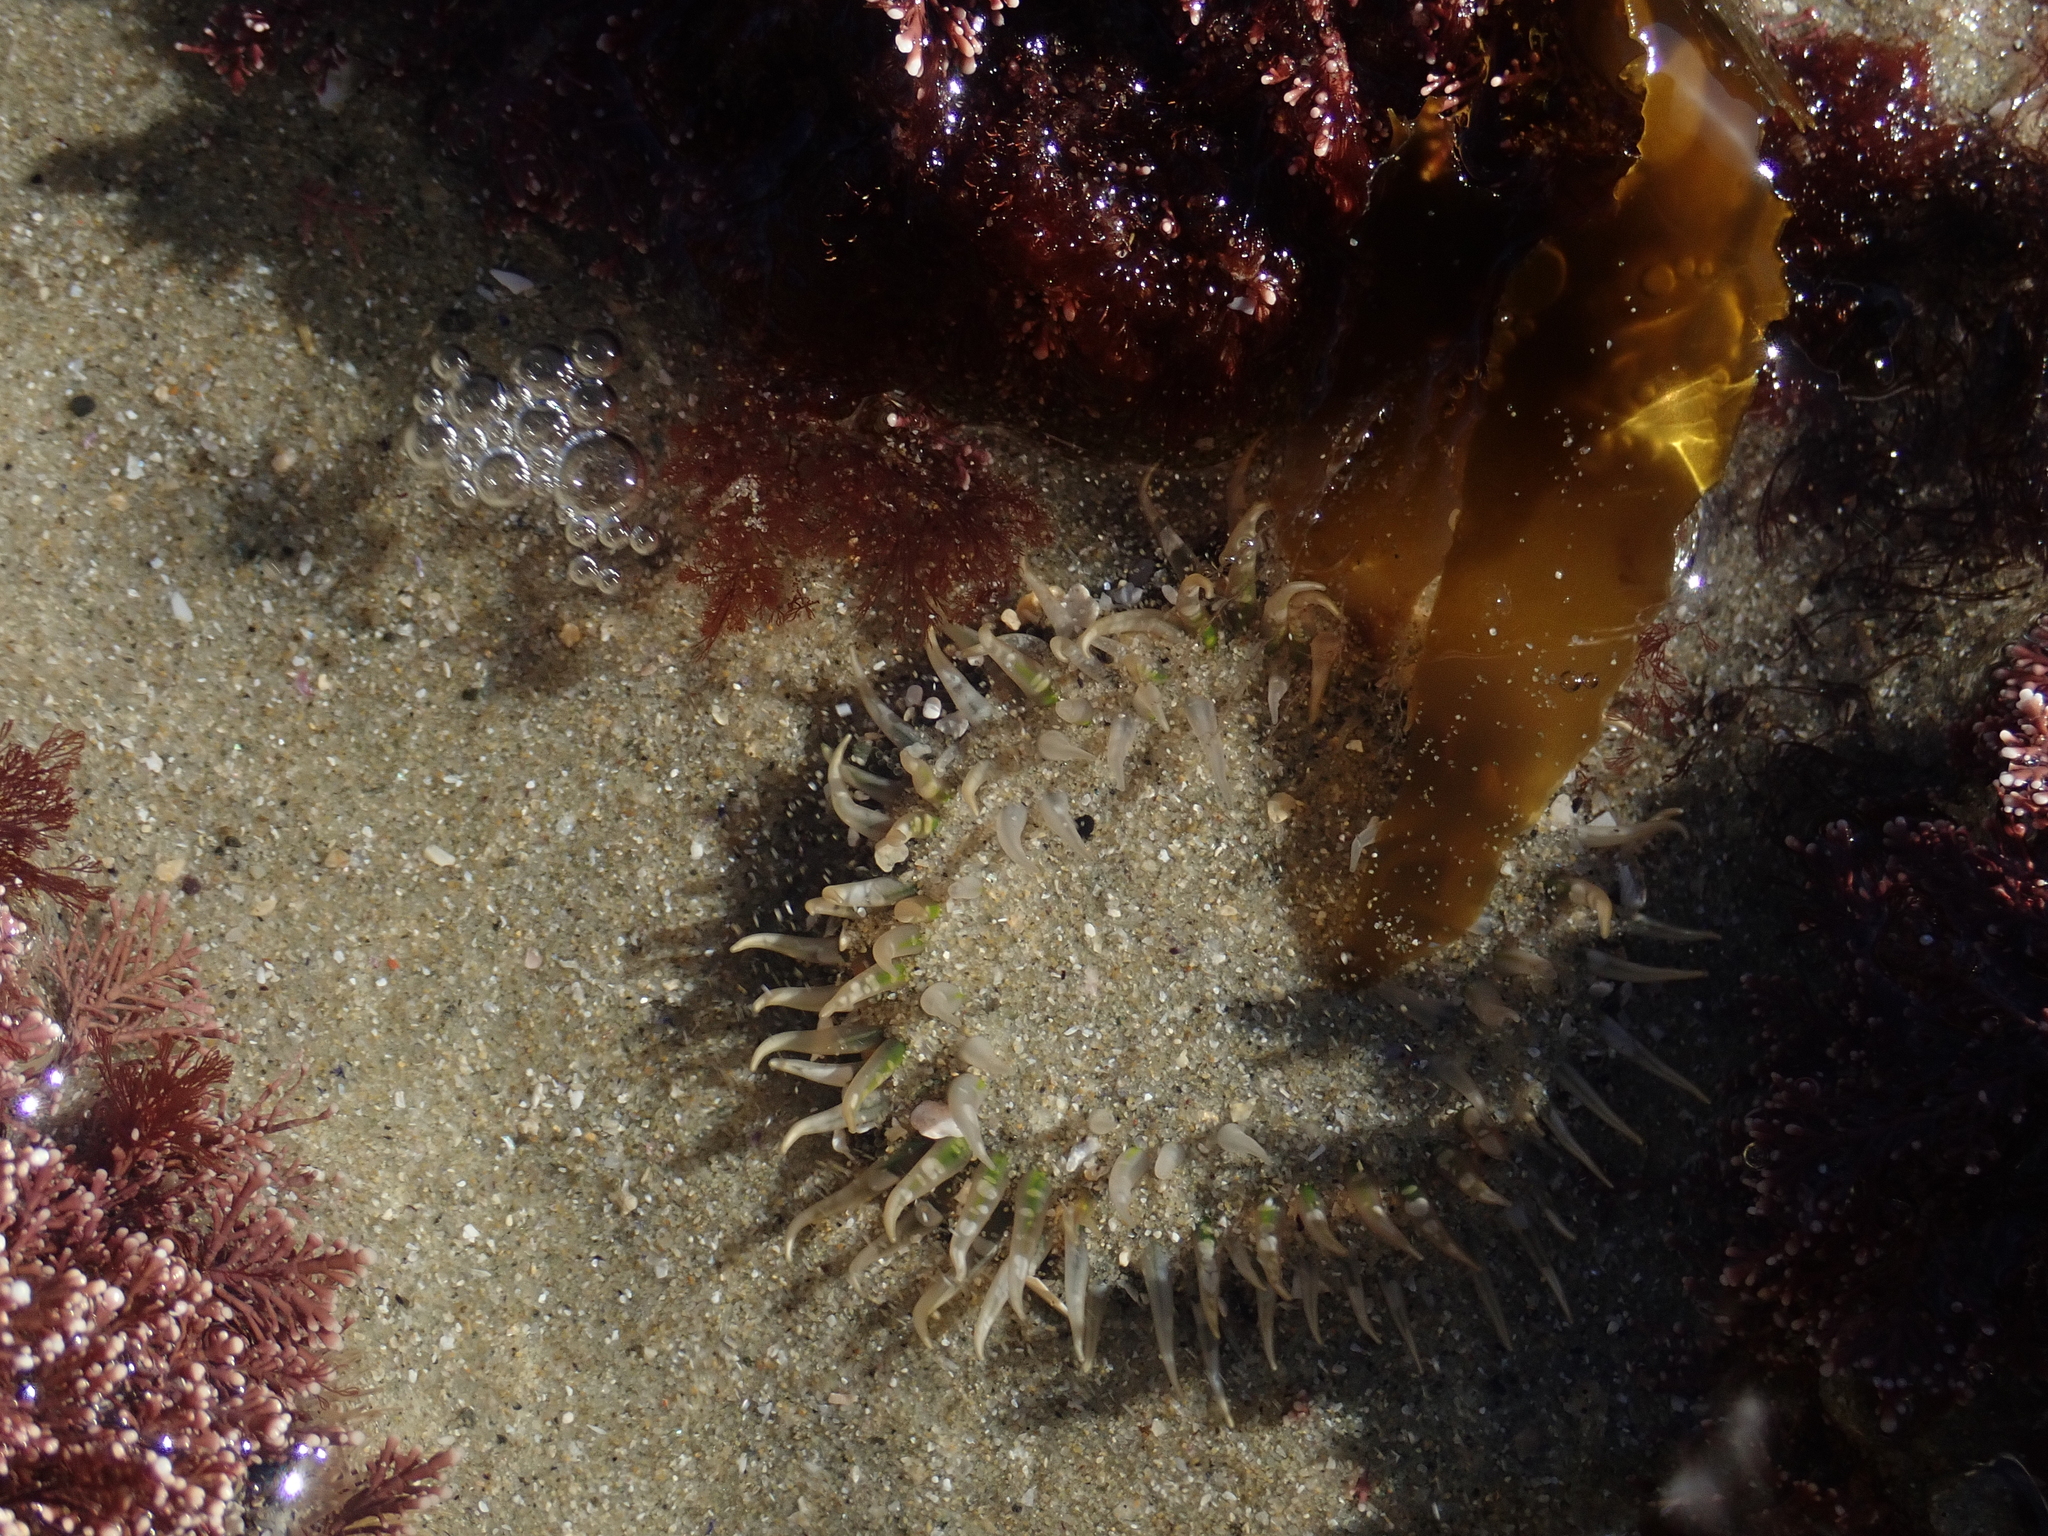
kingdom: Animalia
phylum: Cnidaria
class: Anthozoa
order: Actiniaria
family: Actiniidae
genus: Oulactis
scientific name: Oulactis muscosa
